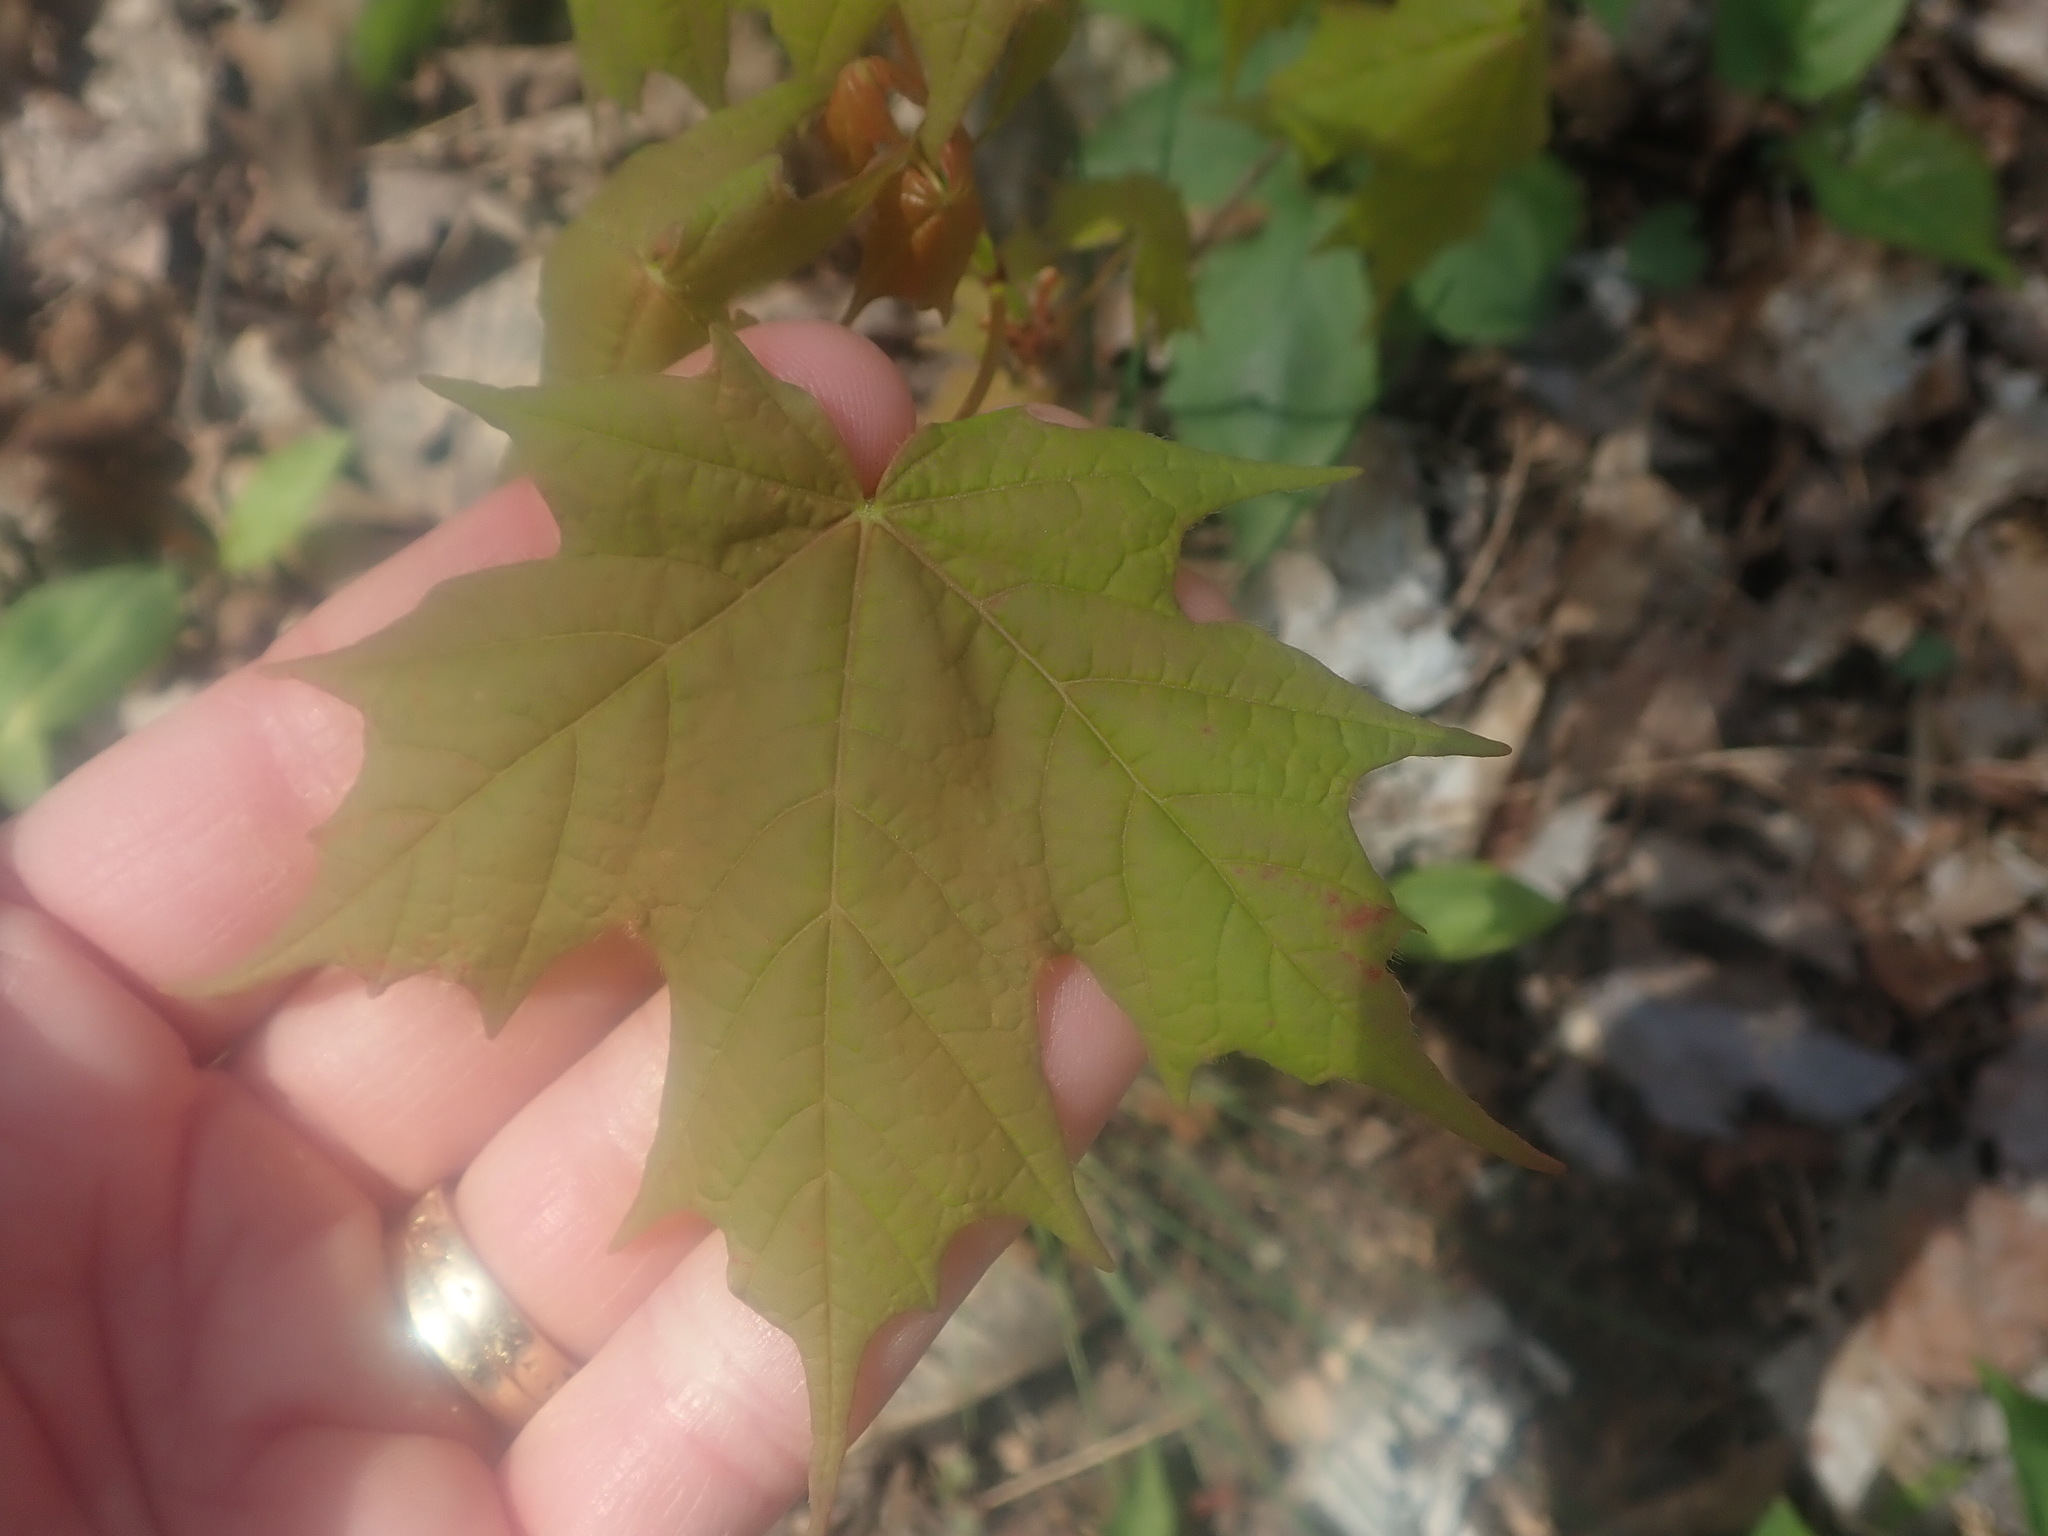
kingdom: Plantae
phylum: Tracheophyta
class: Magnoliopsida
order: Sapindales
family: Sapindaceae
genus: Acer
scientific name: Acer saccharum
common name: Sugar maple
